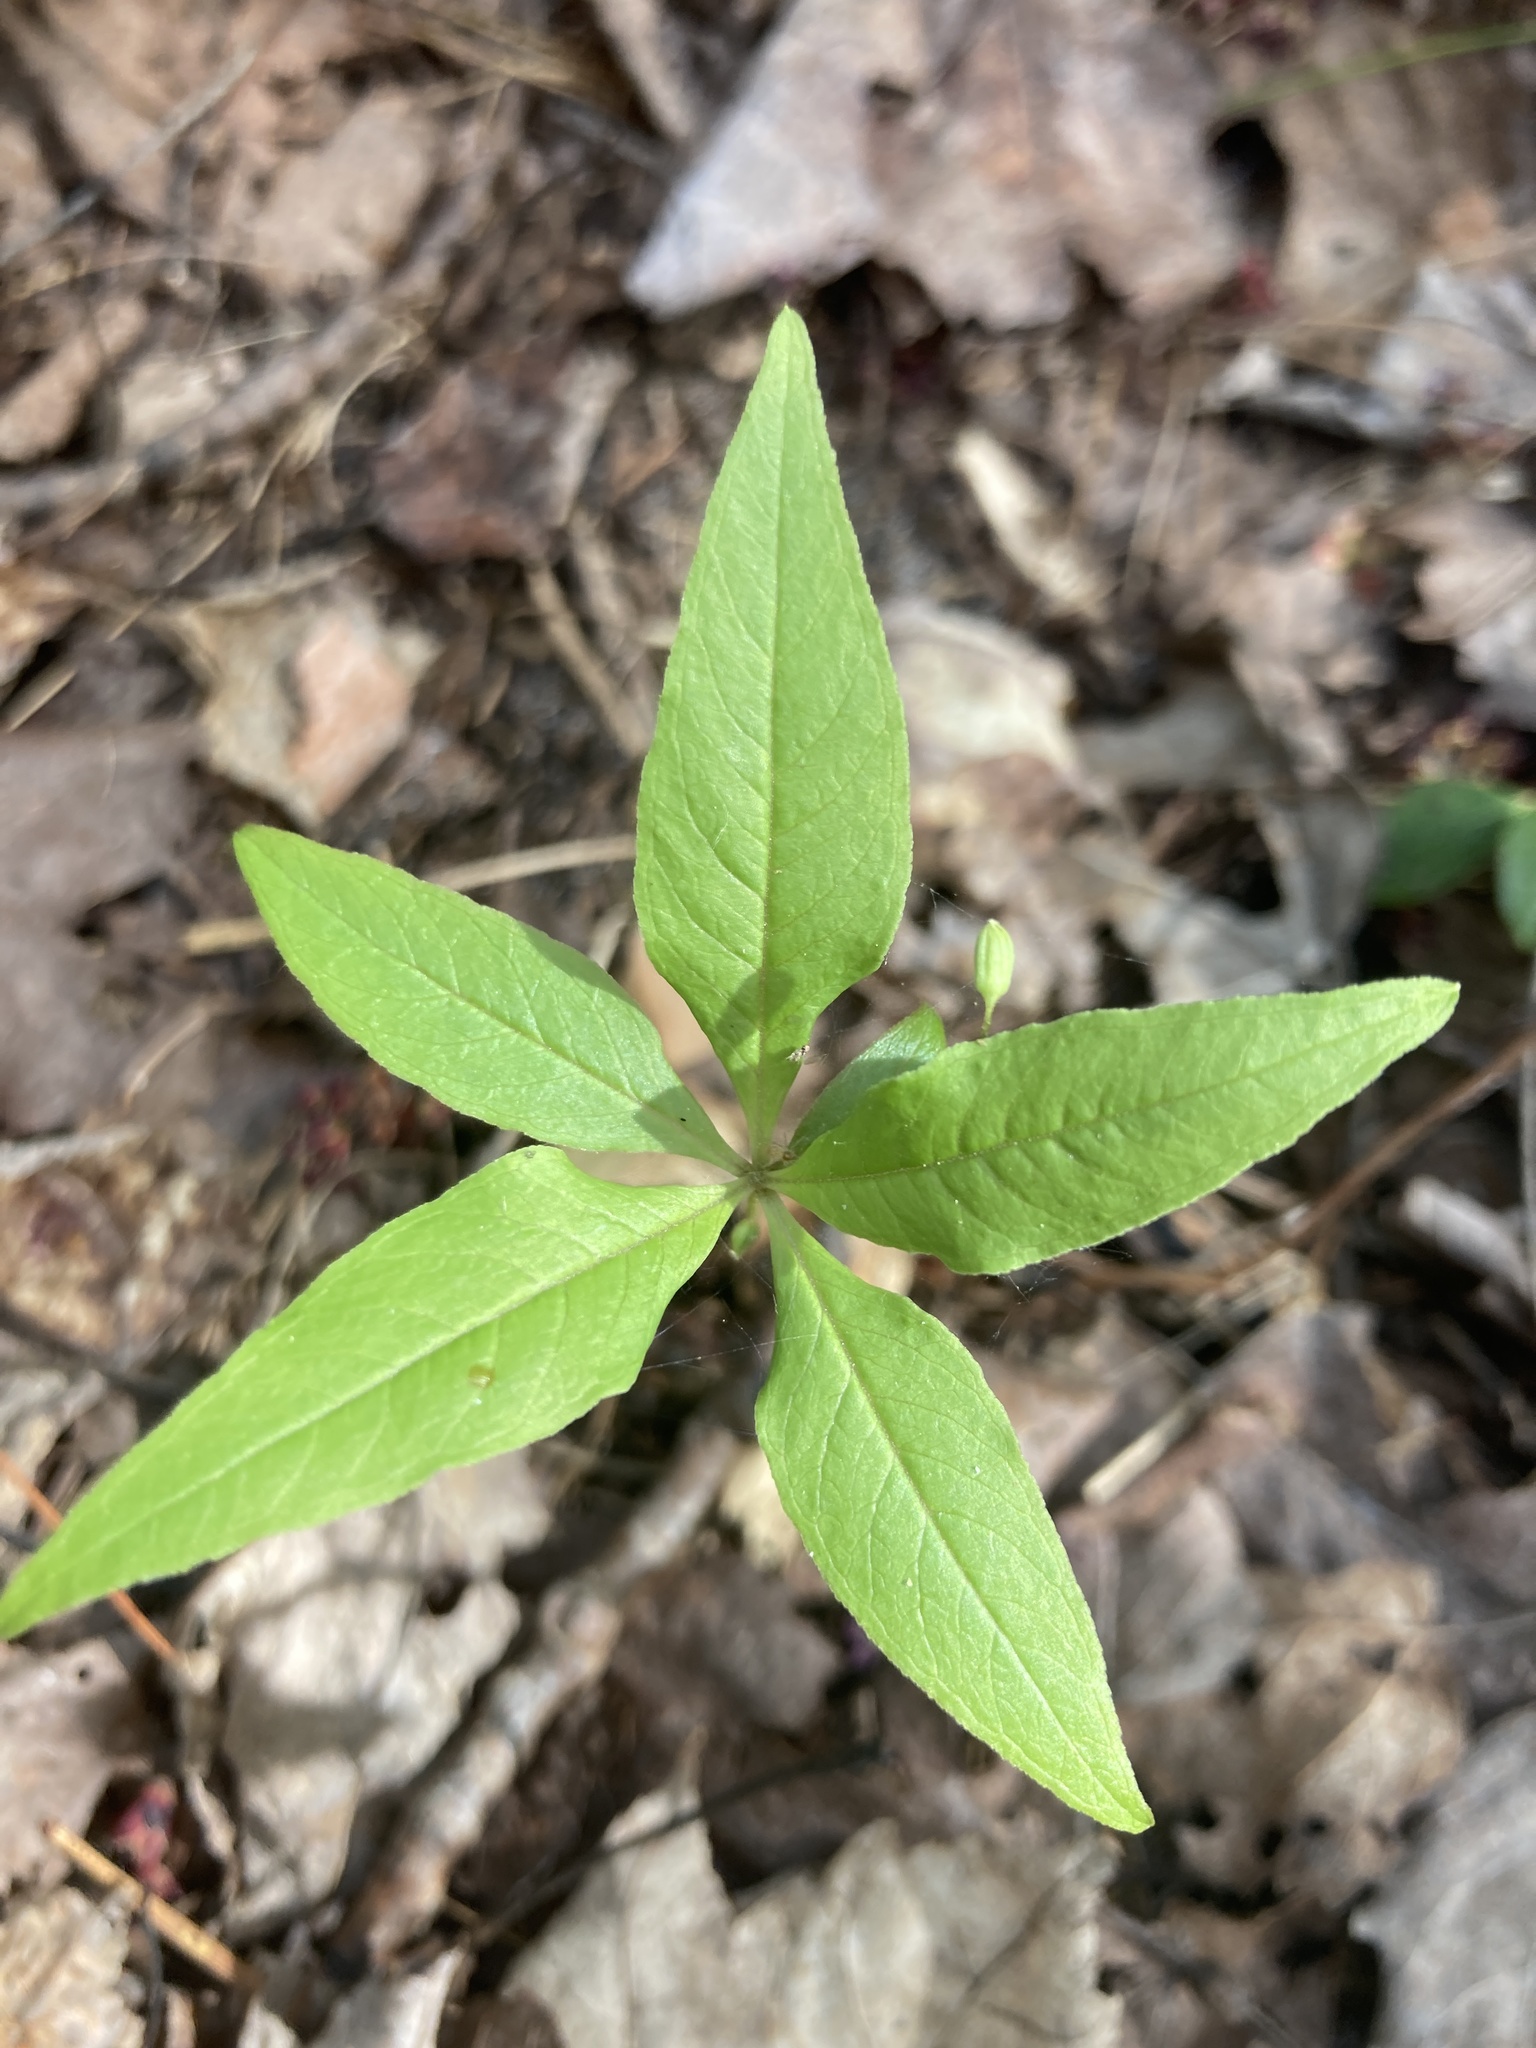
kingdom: Plantae
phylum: Tracheophyta
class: Magnoliopsida
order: Ericales
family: Primulaceae
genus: Lysimachia
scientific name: Lysimachia borealis
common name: American starflower
